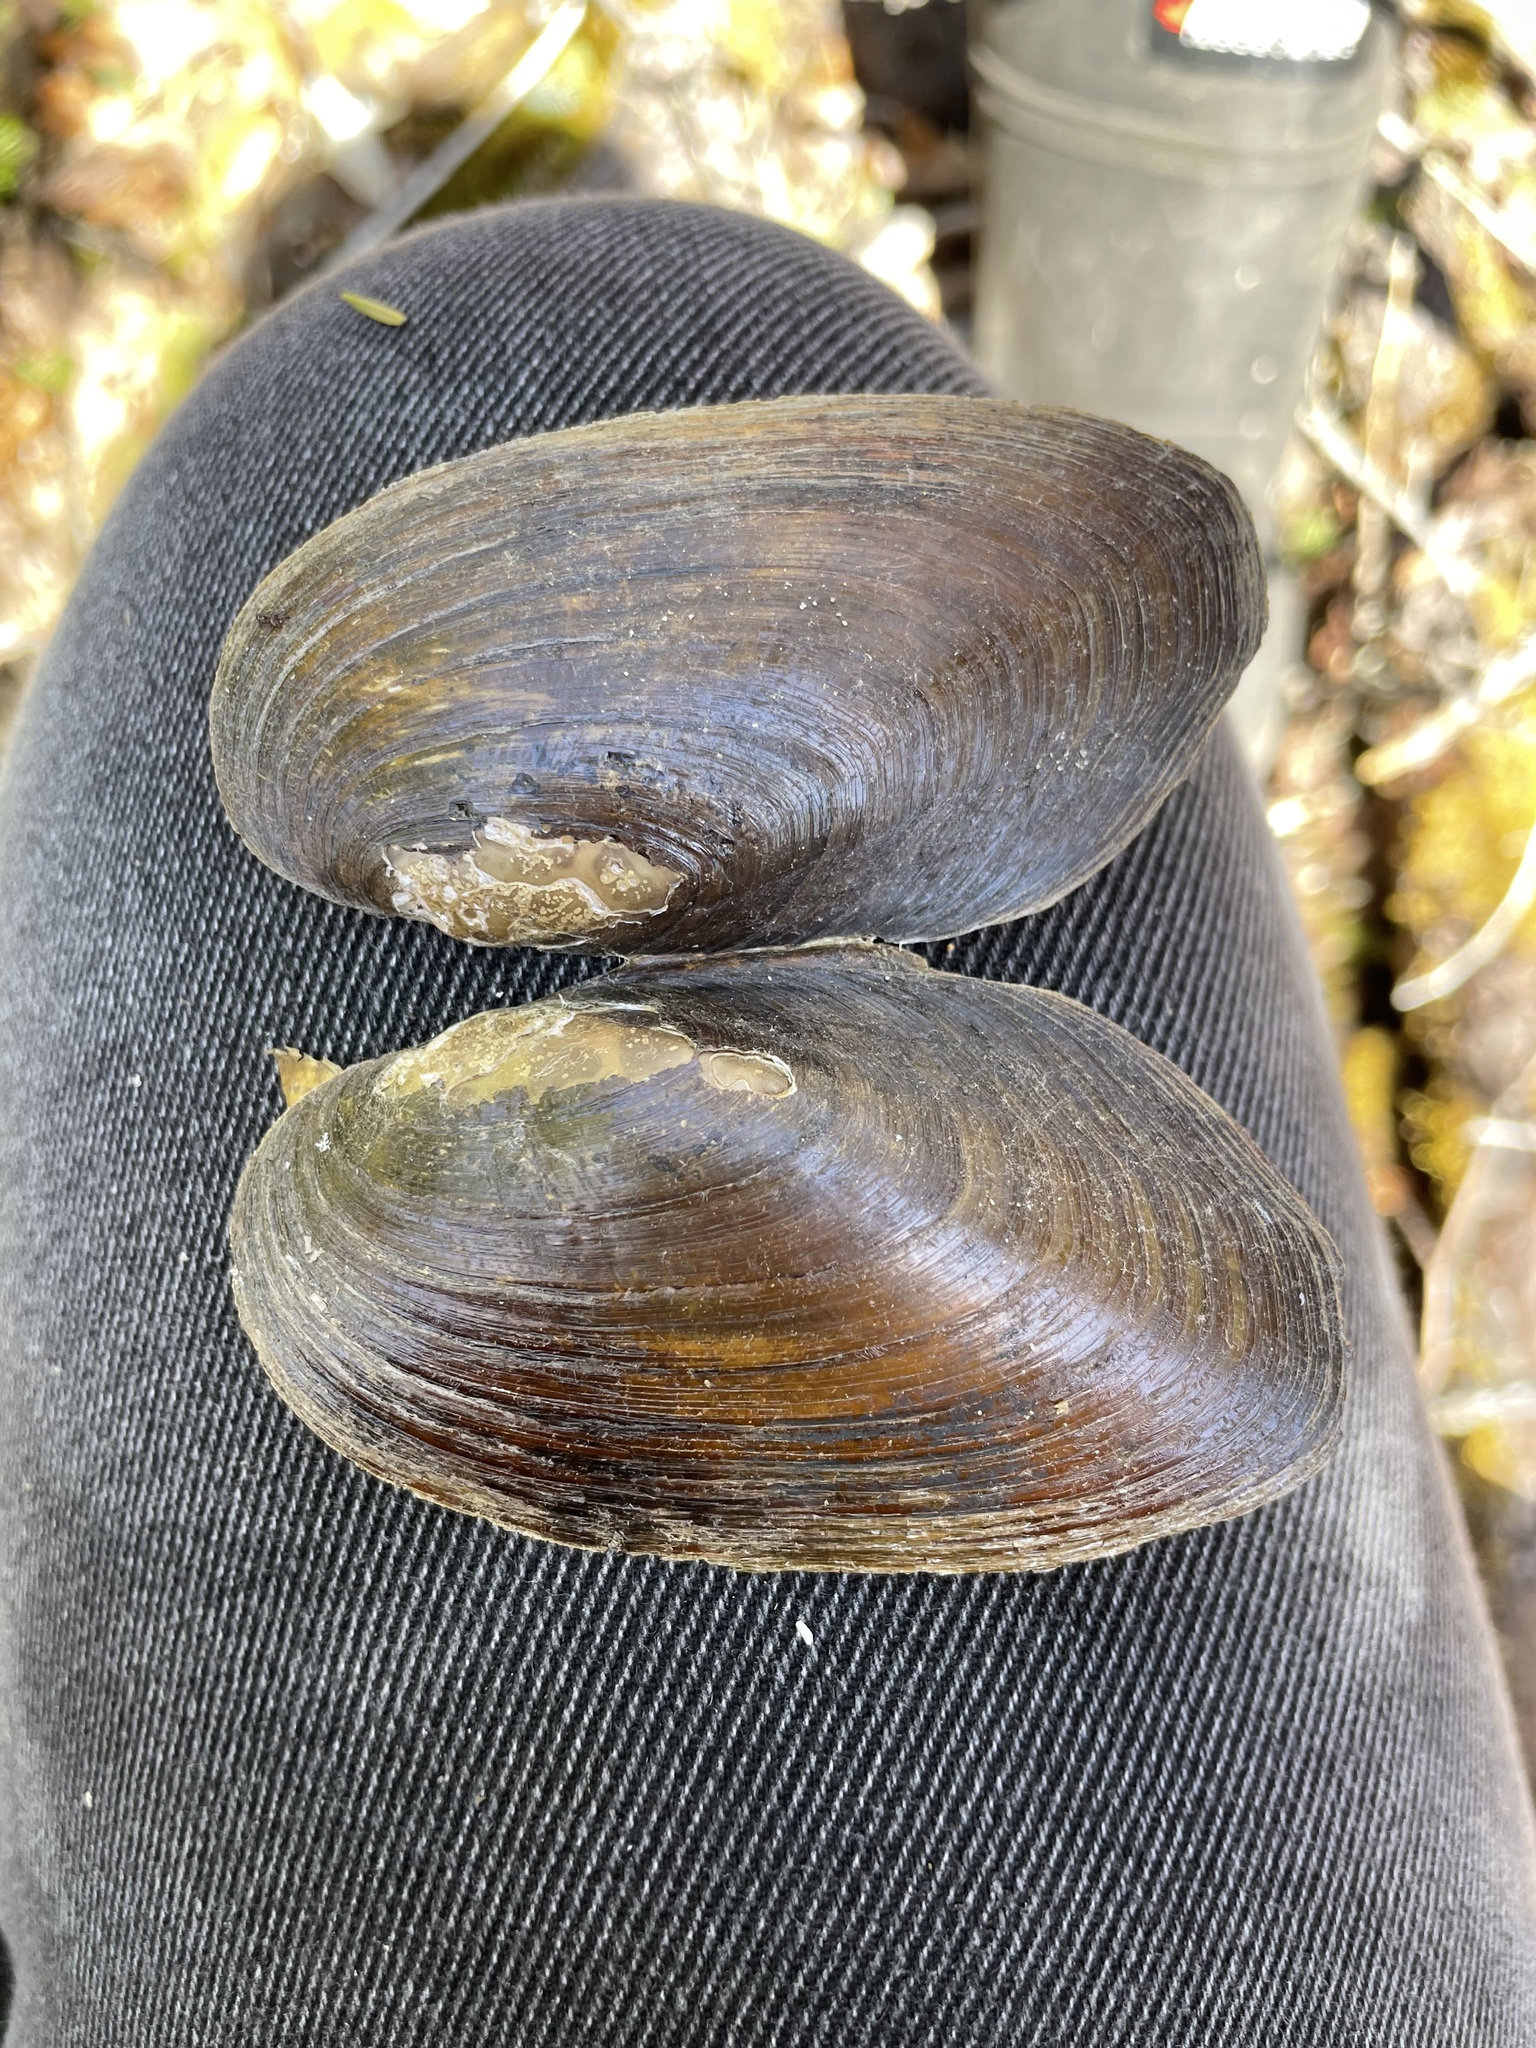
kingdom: Animalia
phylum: Mollusca
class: Bivalvia
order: Unionida
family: Unionidae
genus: Elliptio
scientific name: Elliptio complanata
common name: Eastern elliptio
